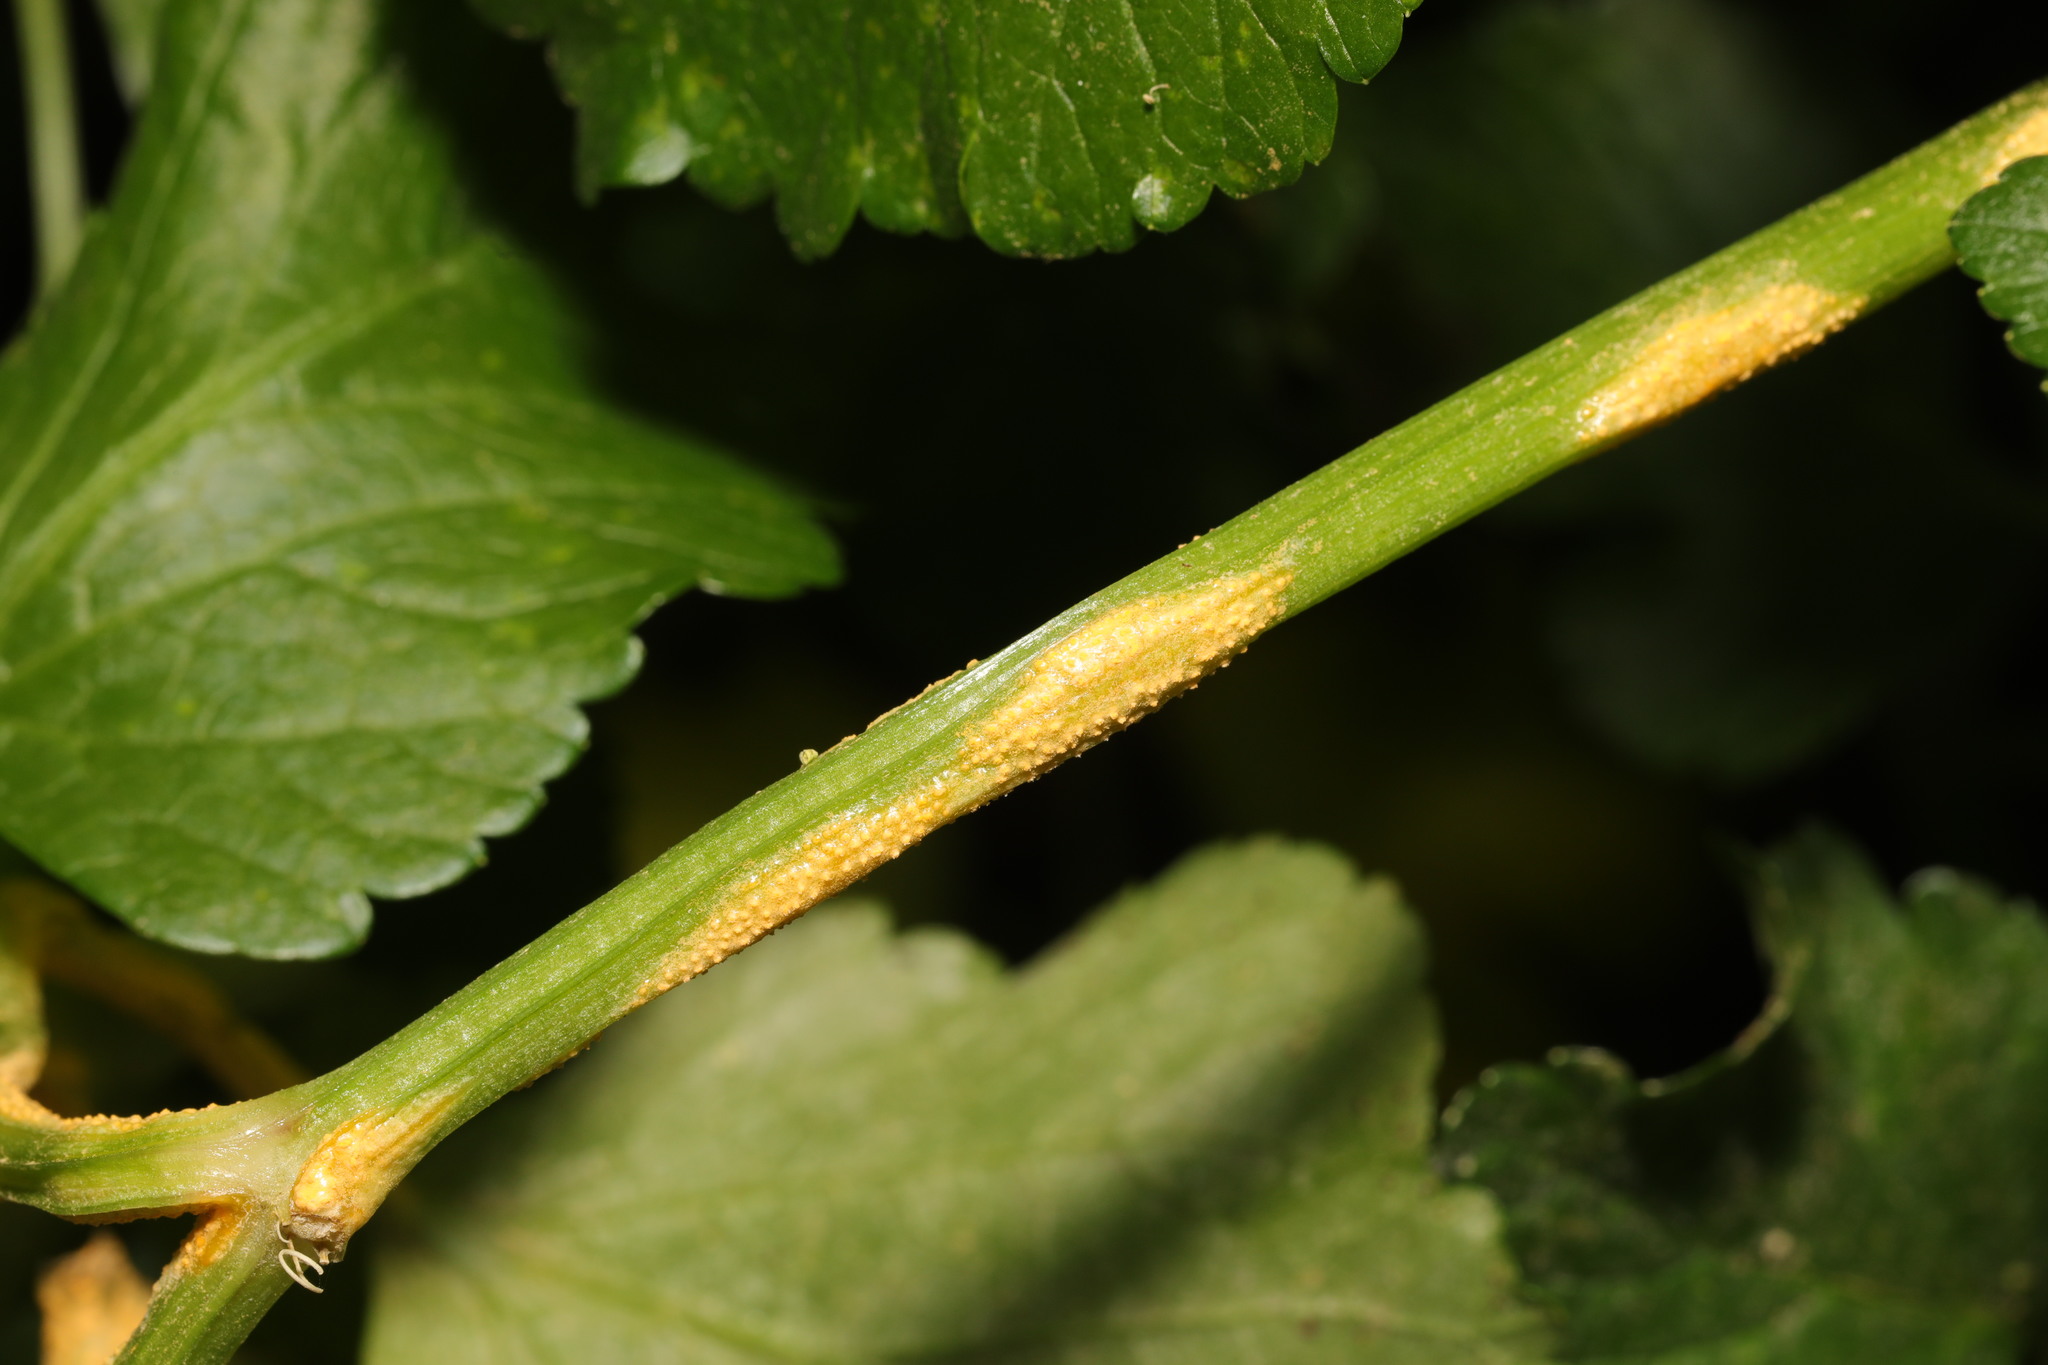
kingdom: Fungi
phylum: Basidiomycota
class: Pucciniomycetes
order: Pucciniales
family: Pucciniaceae
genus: Puccinia
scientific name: Puccinia smyrnii
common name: Alexanders rust
